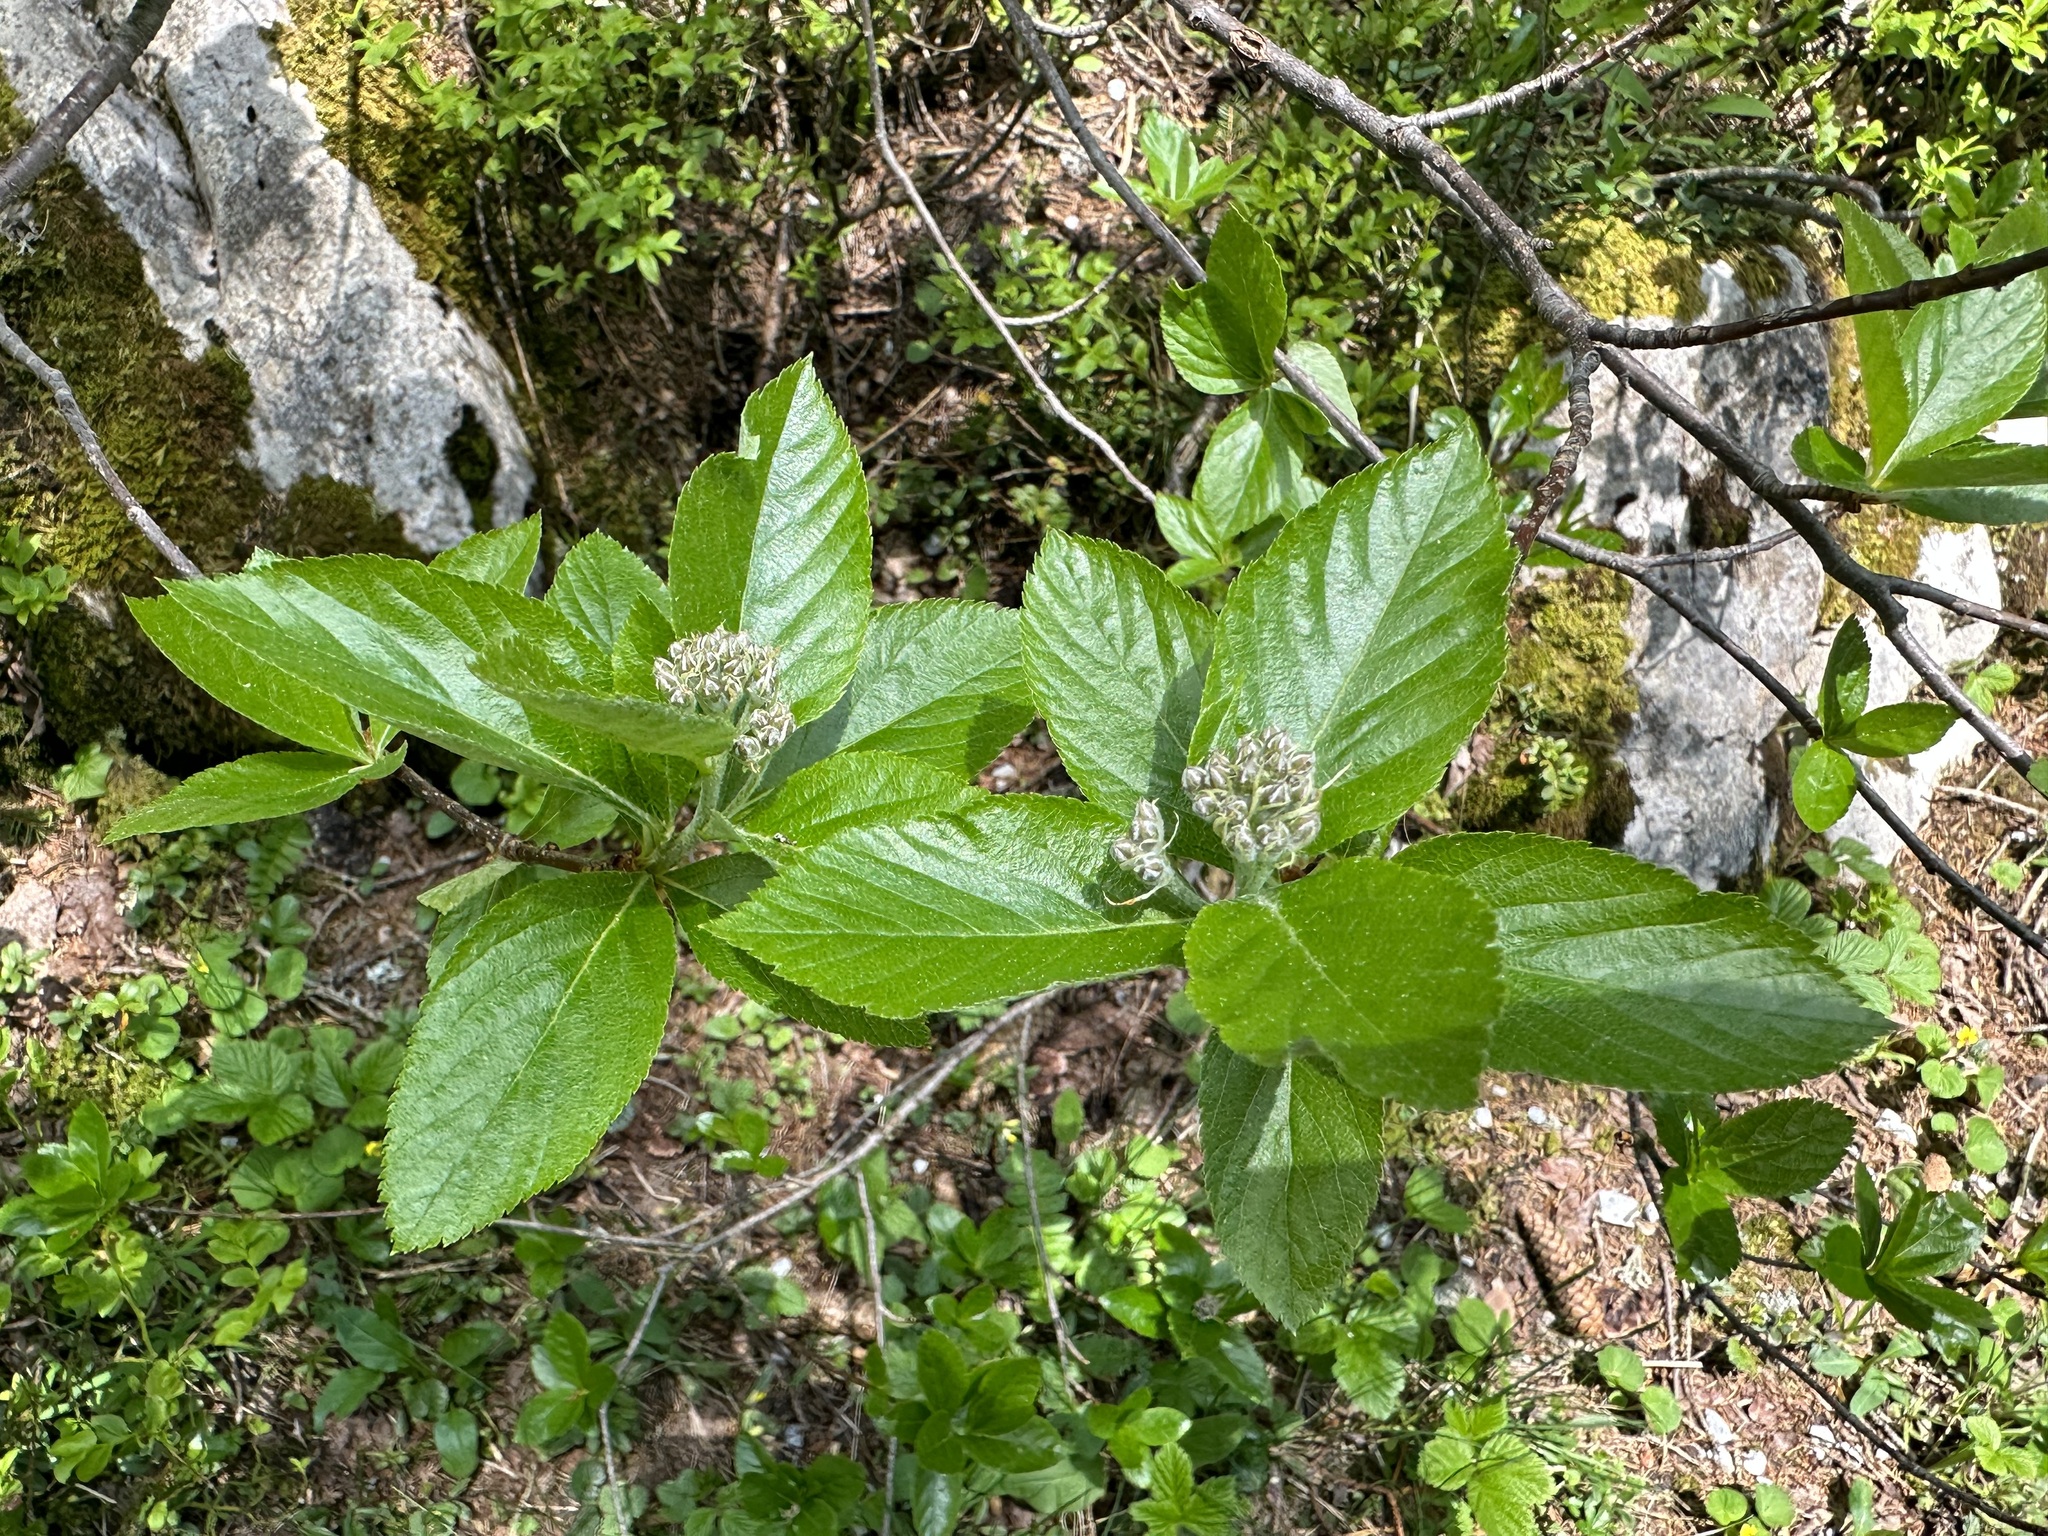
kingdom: Plantae
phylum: Tracheophyta
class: Magnoliopsida
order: Rosales
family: Rosaceae
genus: Chamaemespilus
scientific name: Chamaemespilus alpina
